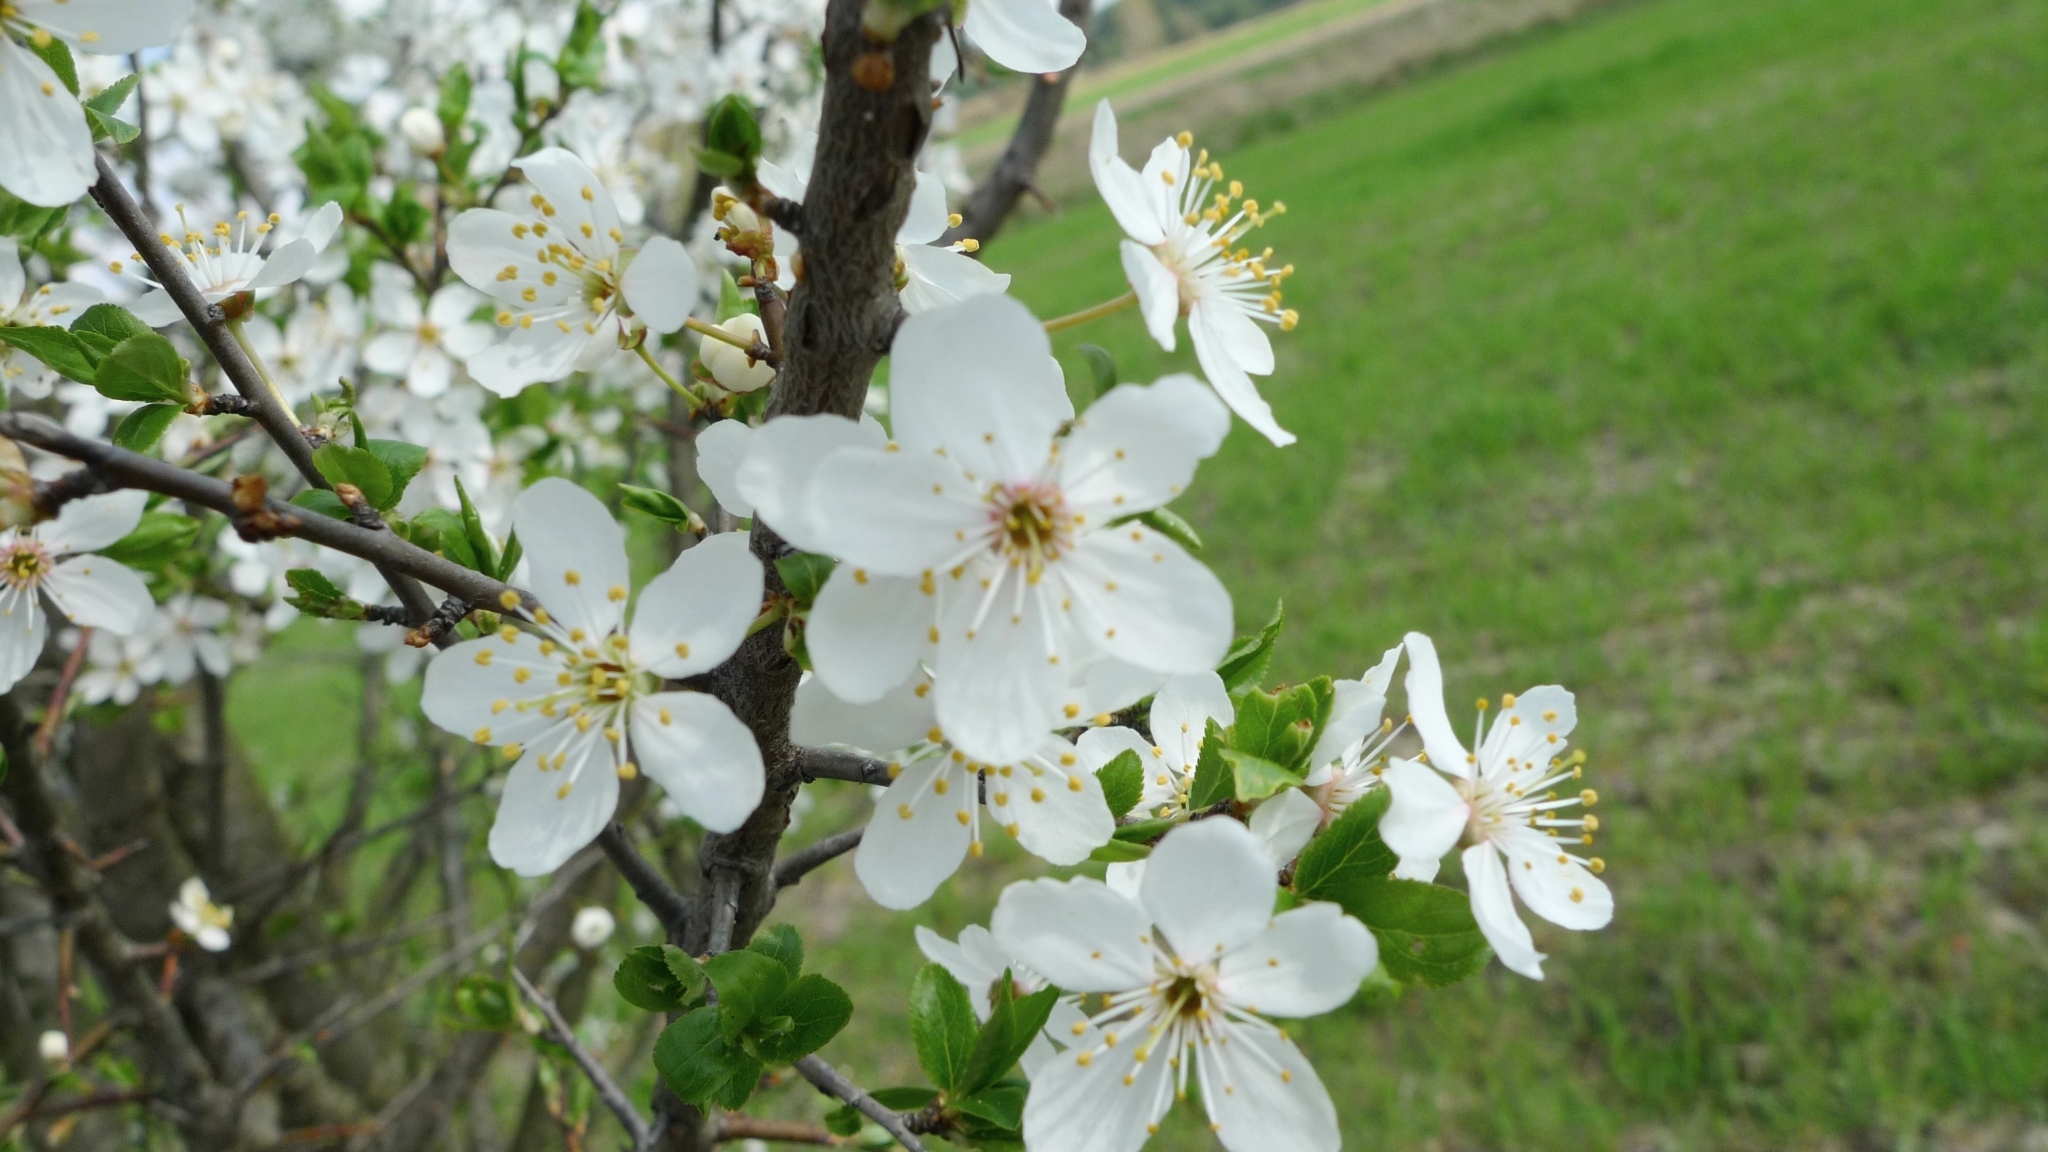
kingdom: Plantae
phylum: Tracheophyta
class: Magnoliopsida
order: Rosales
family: Rosaceae
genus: Prunus
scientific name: Prunus cerasifera
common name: Cherry plum
